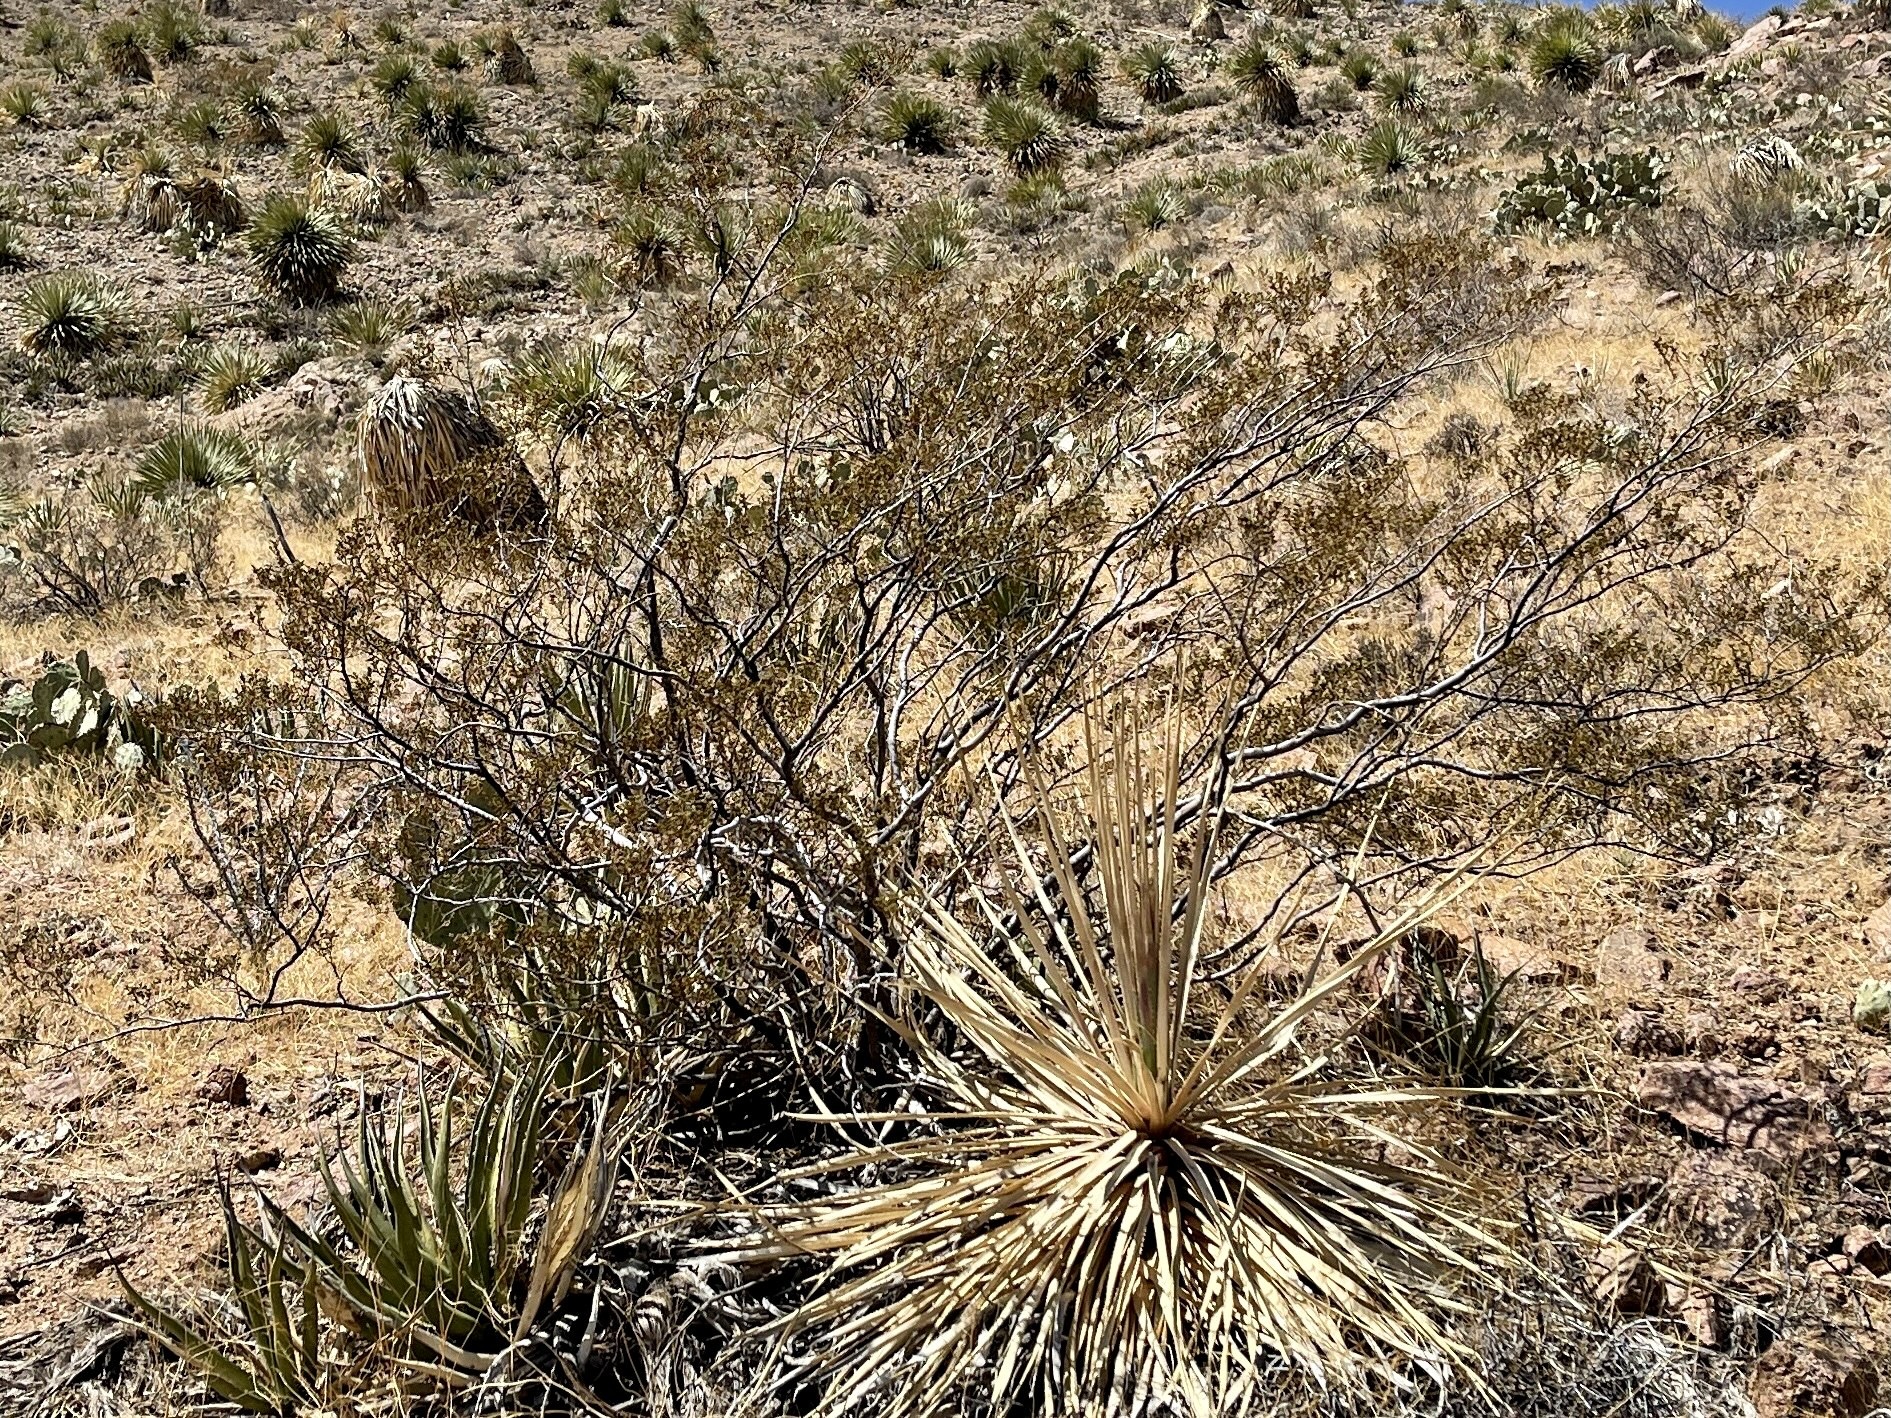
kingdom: Plantae
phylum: Tracheophyta
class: Magnoliopsida
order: Zygophyllales
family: Zygophyllaceae
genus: Larrea
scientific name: Larrea tridentata
